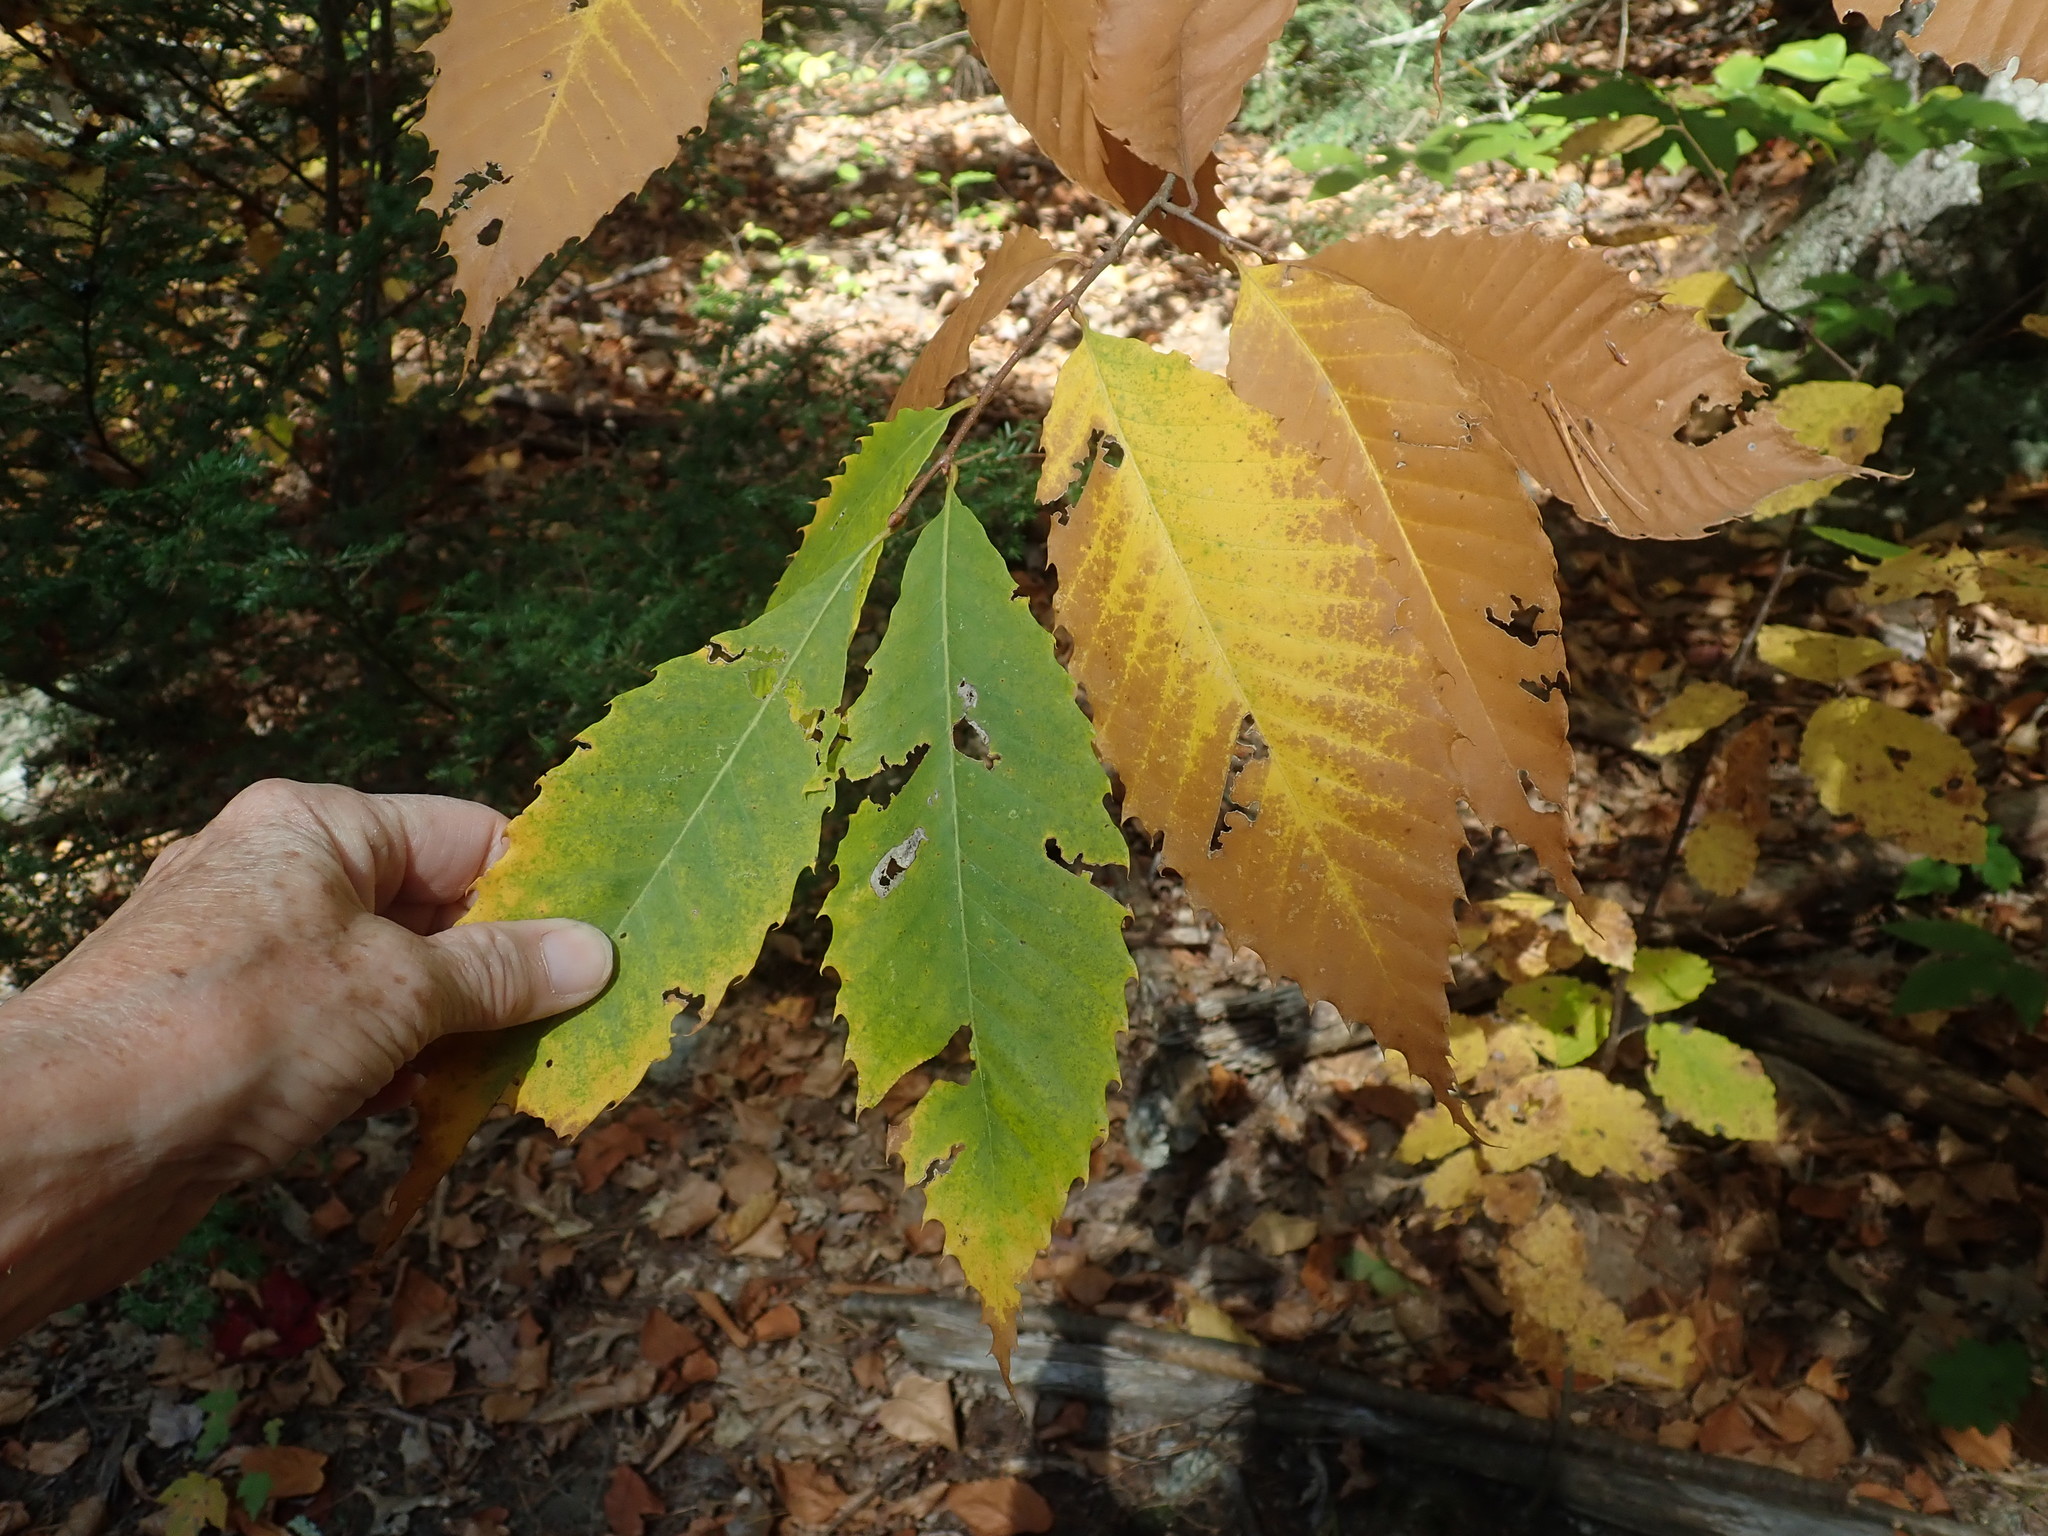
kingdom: Plantae
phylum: Tracheophyta
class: Magnoliopsida
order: Fagales
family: Fagaceae
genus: Castanea
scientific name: Castanea dentata
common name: American chestnut
